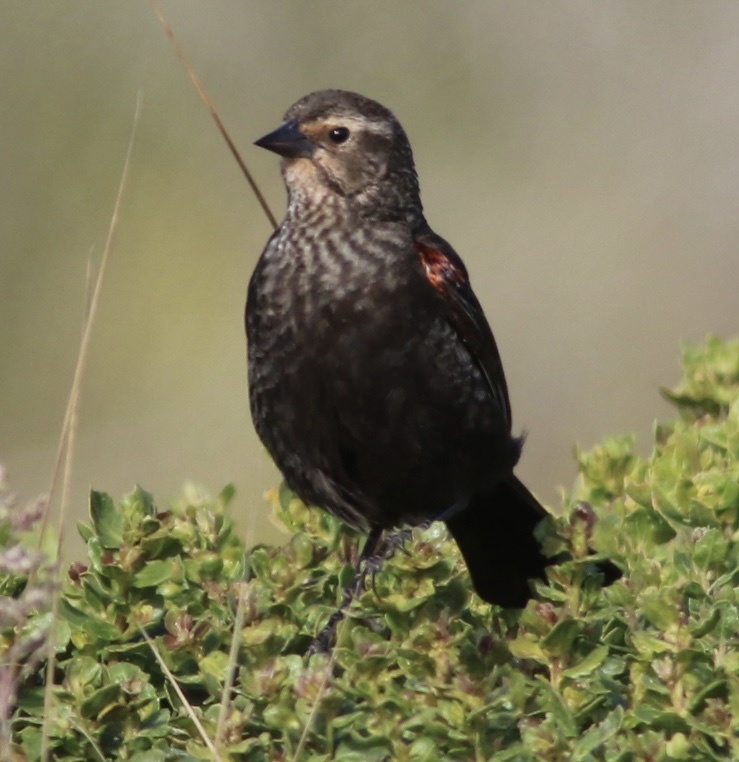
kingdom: Animalia
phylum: Chordata
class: Aves
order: Passeriformes
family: Icteridae
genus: Agelaius
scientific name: Agelaius phoeniceus
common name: Red-winged blackbird
